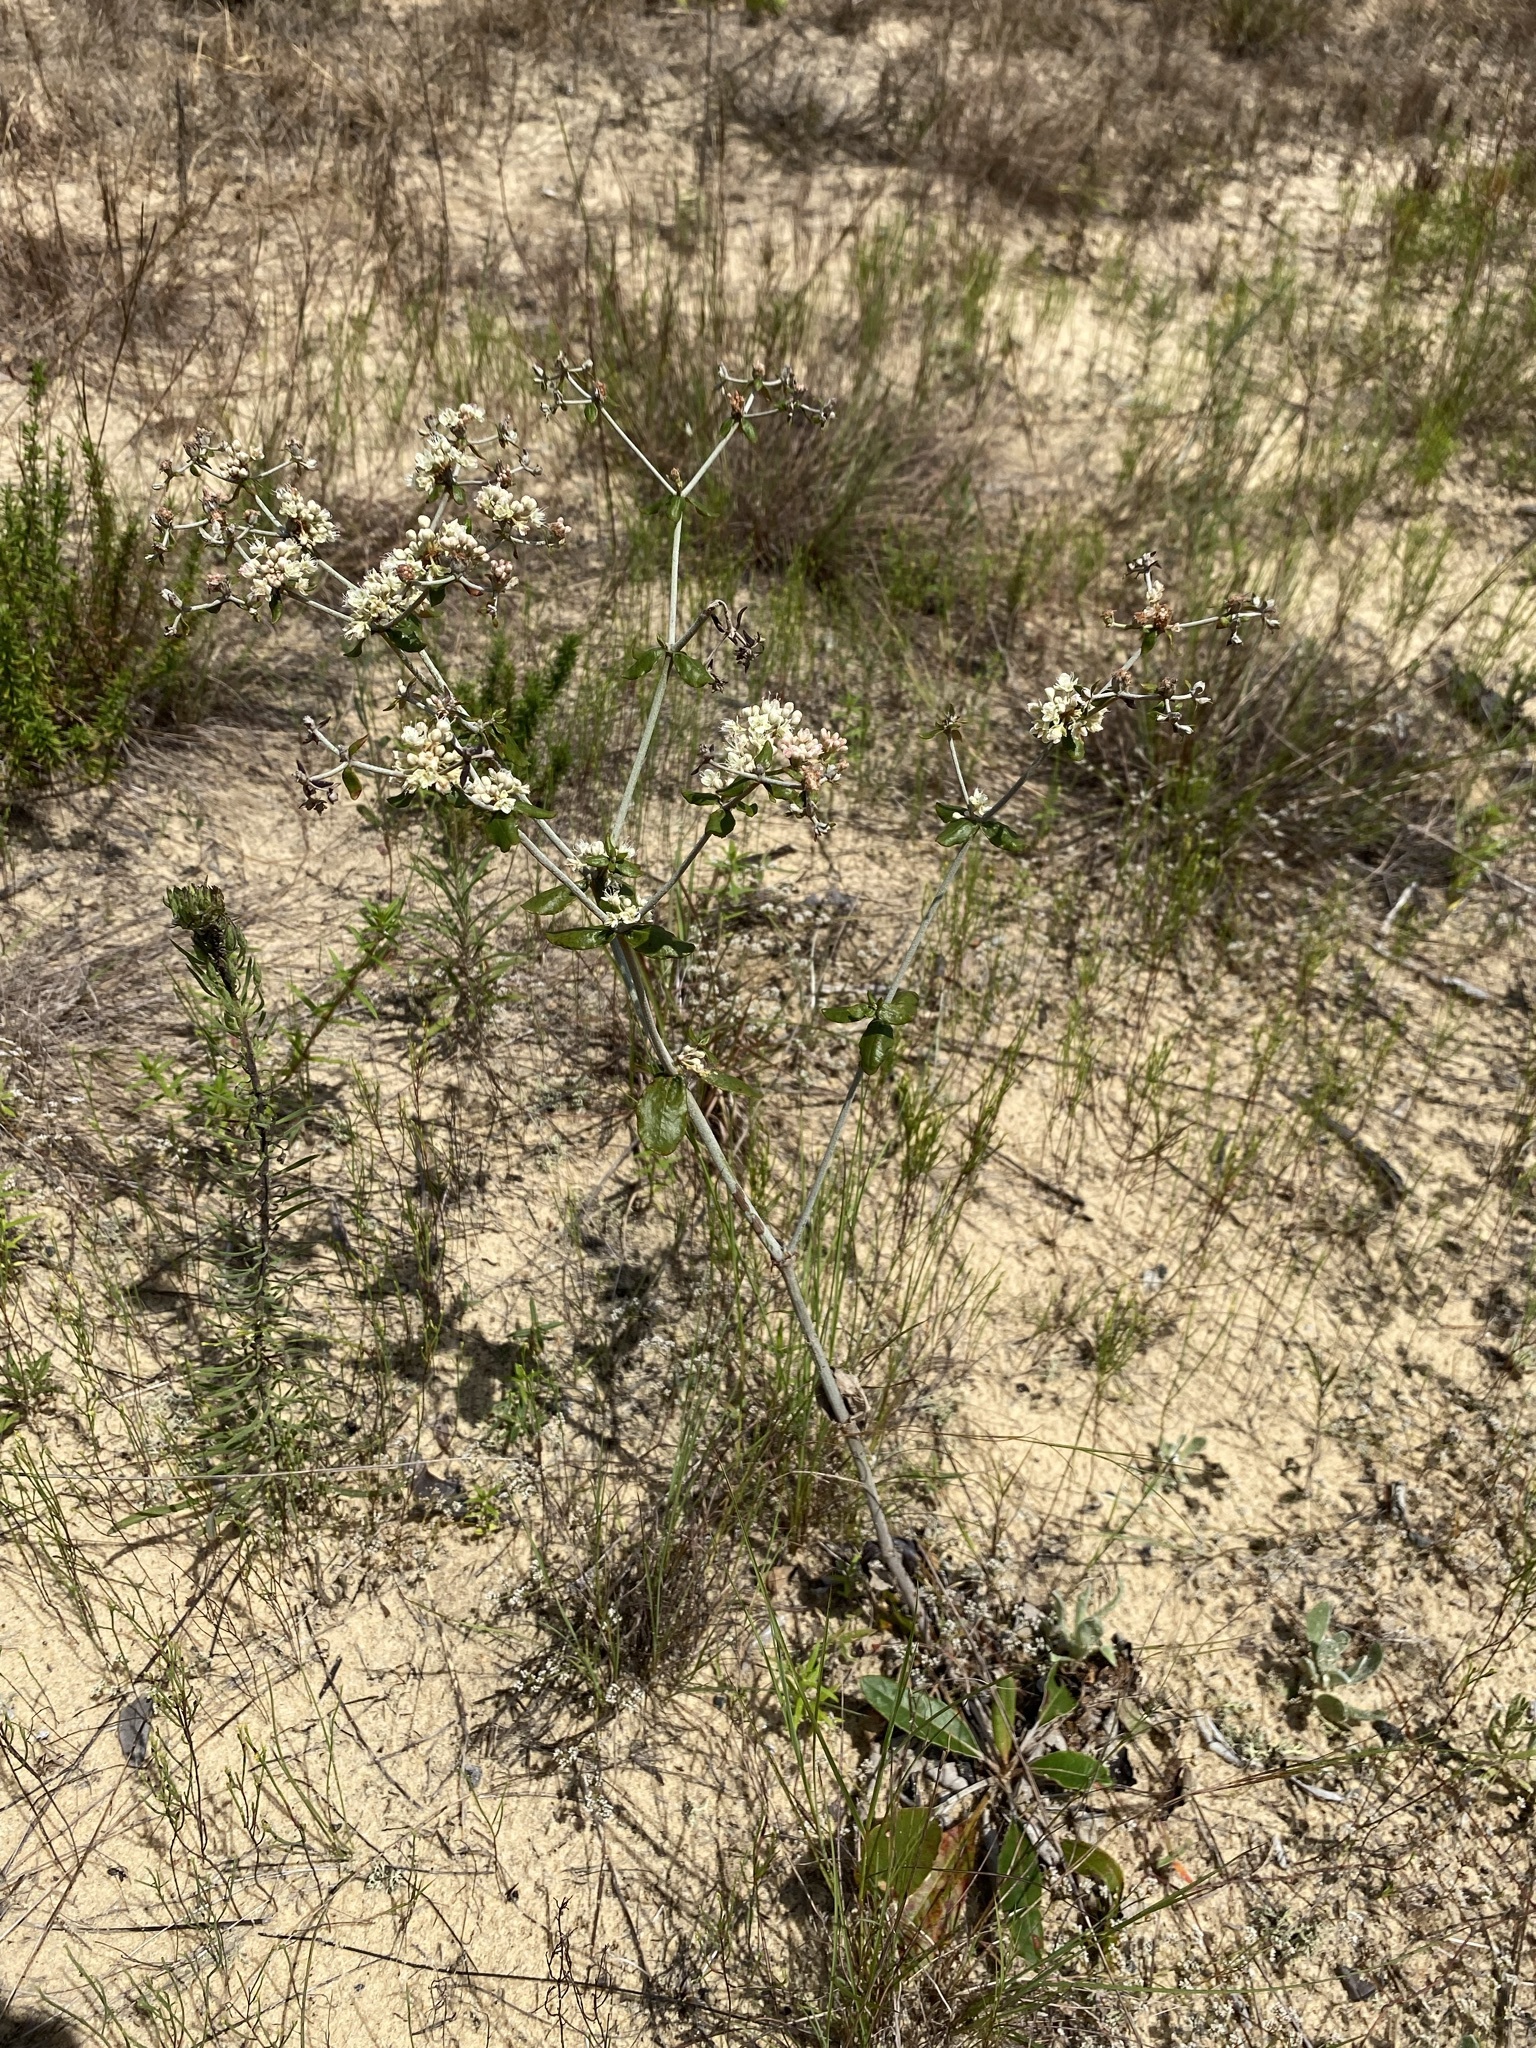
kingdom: Plantae
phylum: Tracheophyta
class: Magnoliopsida
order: Caryophyllales
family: Polygonaceae
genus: Eriogonum
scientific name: Eriogonum tomentosum
